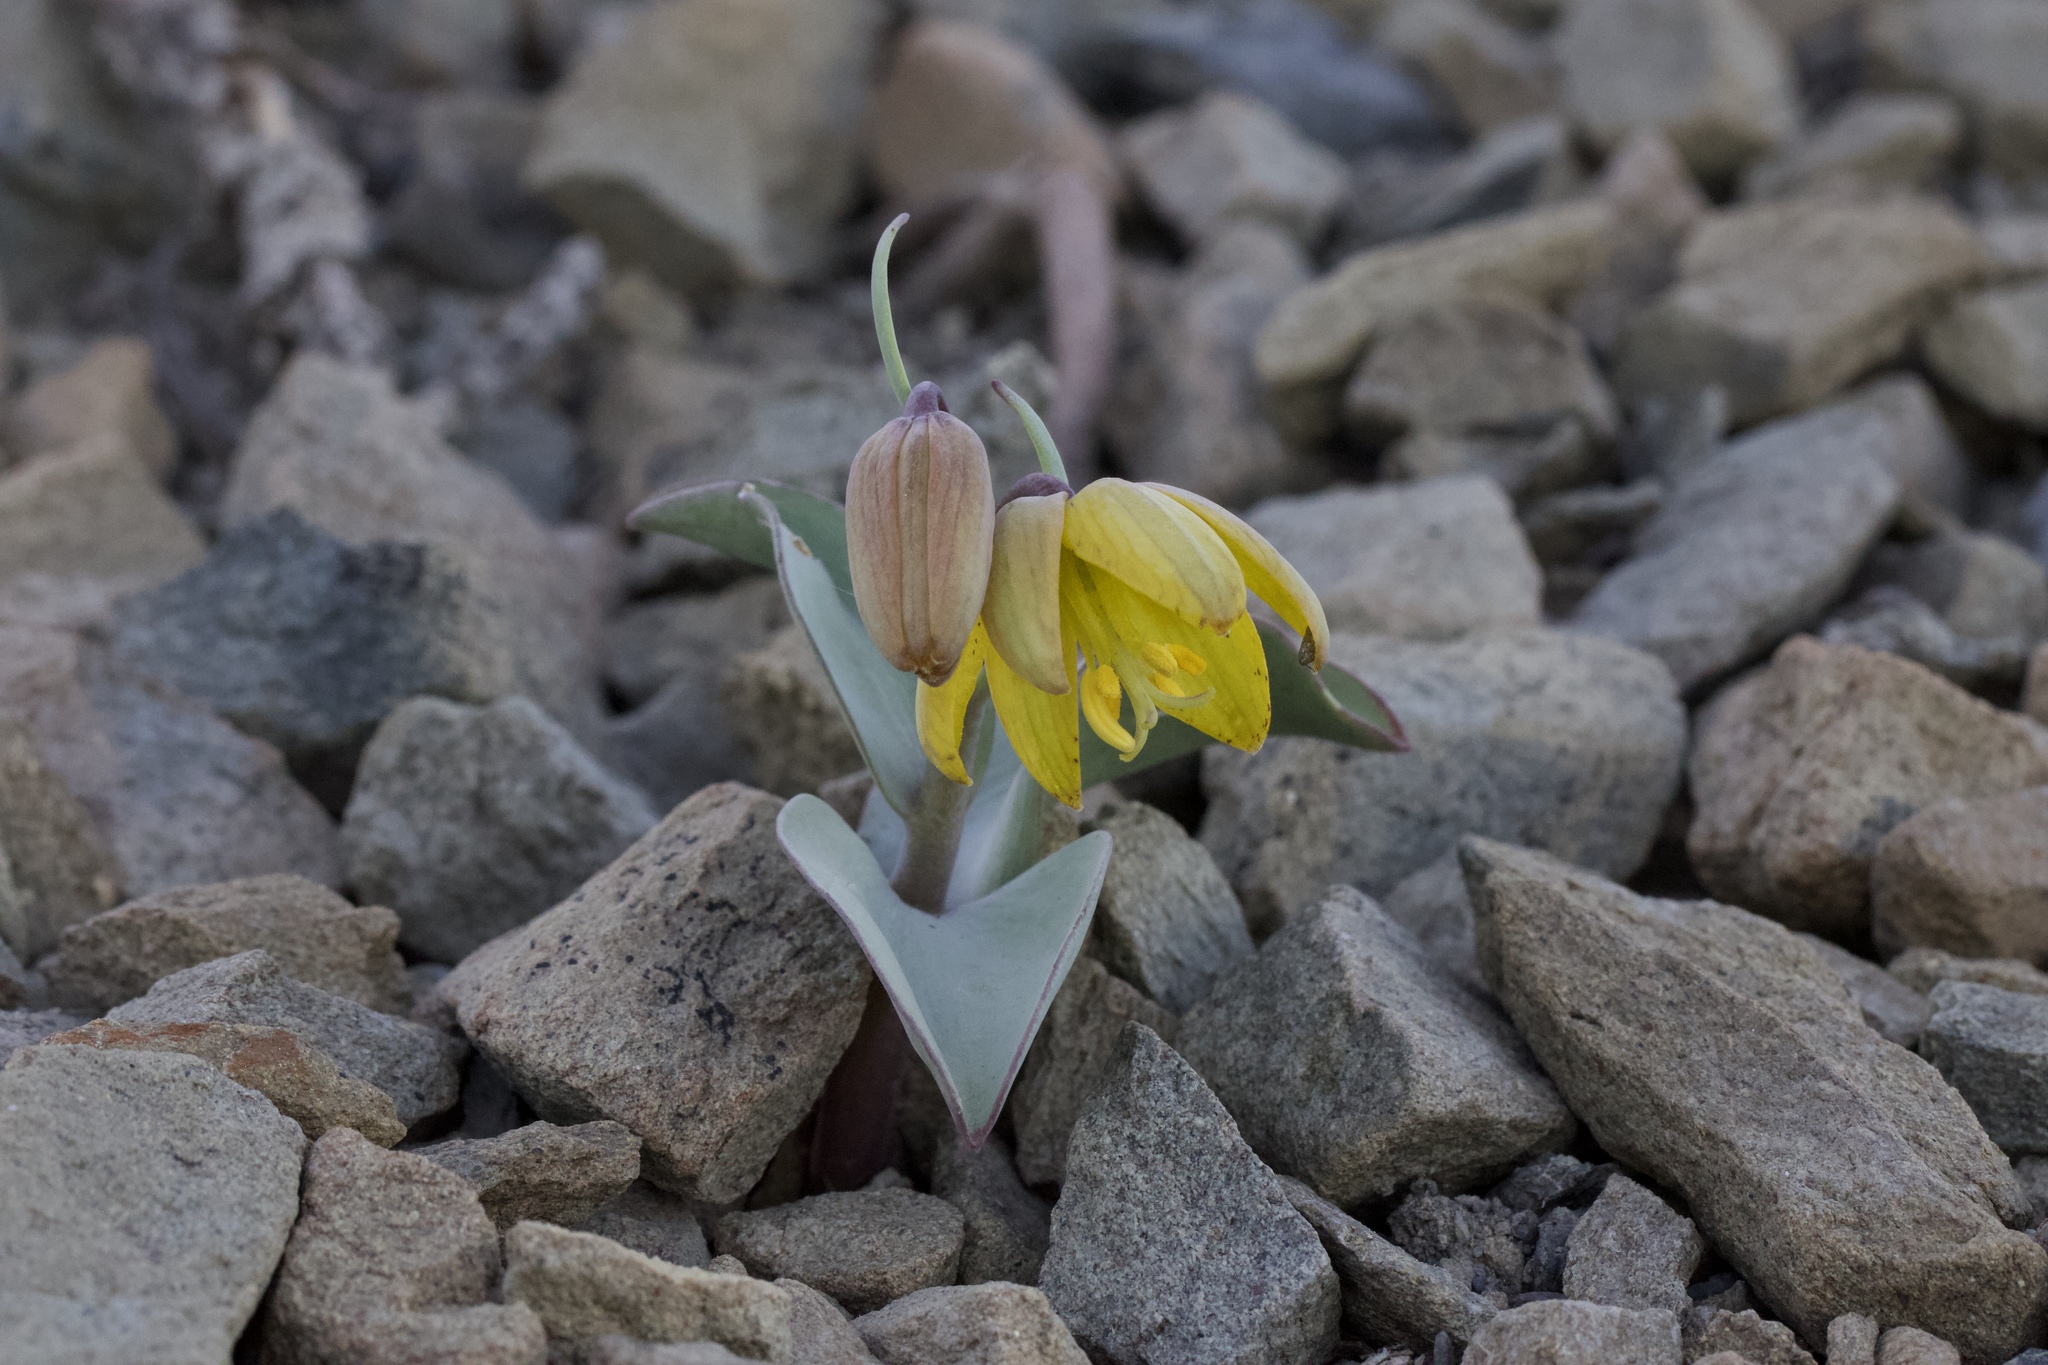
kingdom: Plantae
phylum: Tracheophyta
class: Liliopsida
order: Liliales
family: Liliaceae
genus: Fritillaria
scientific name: Fritillaria glauca
